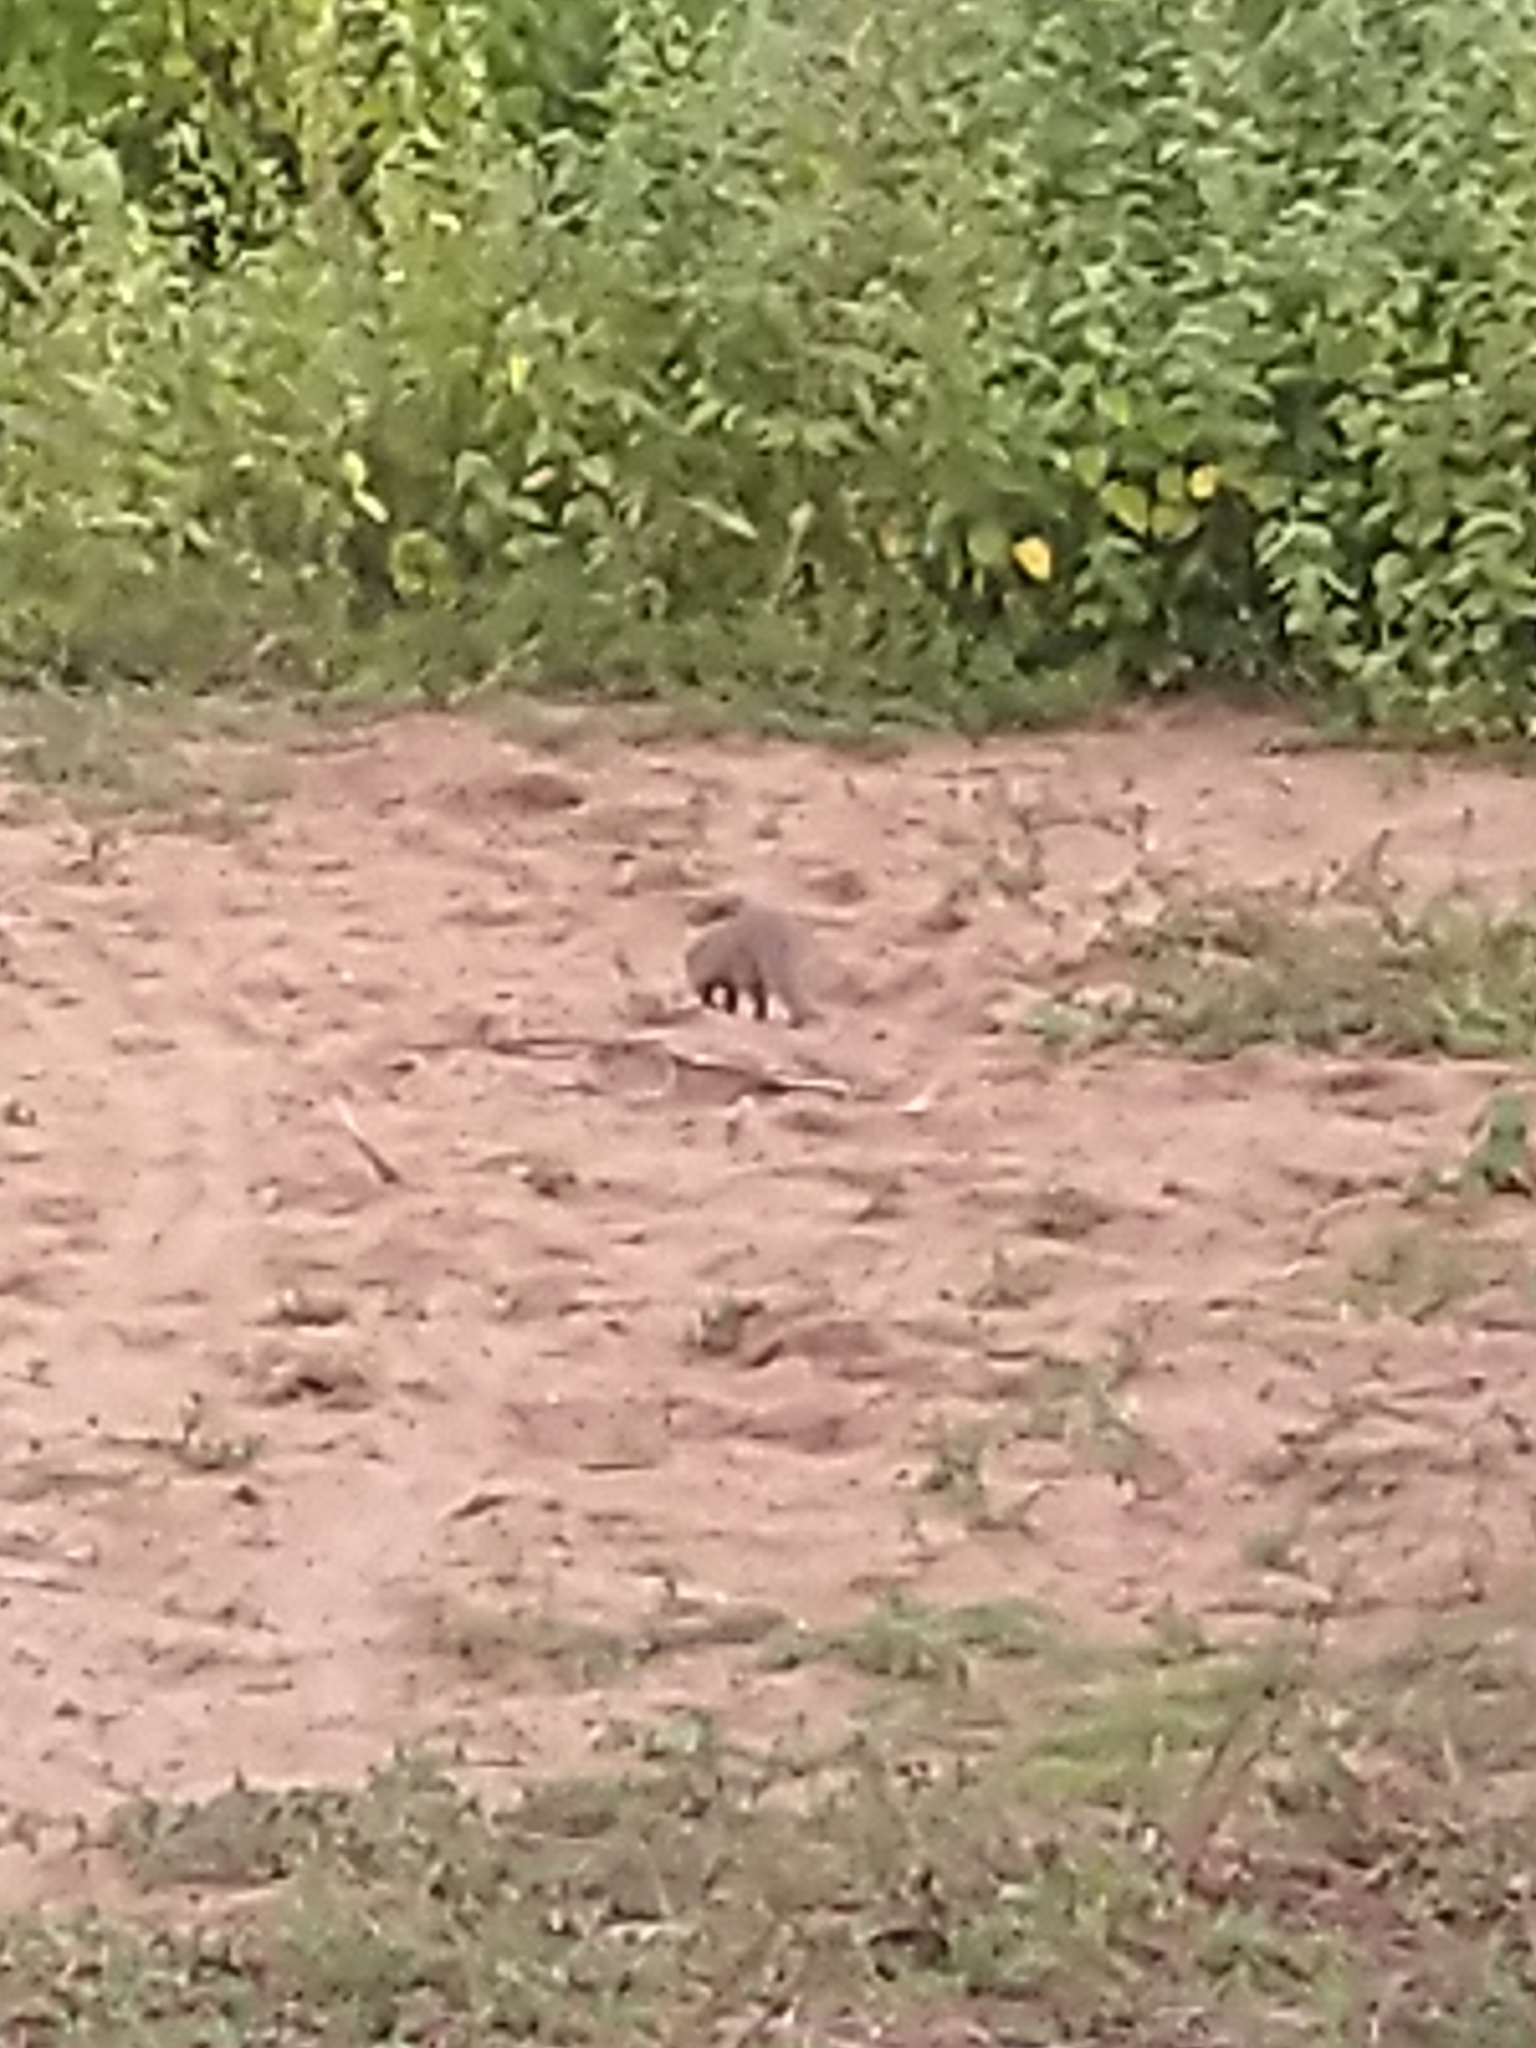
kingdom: Animalia
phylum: Chordata
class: Mammalia
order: Carnivora
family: Herpestidae
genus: Herpestes
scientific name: Herpestes edwardsi
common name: Indian gray mongoose
